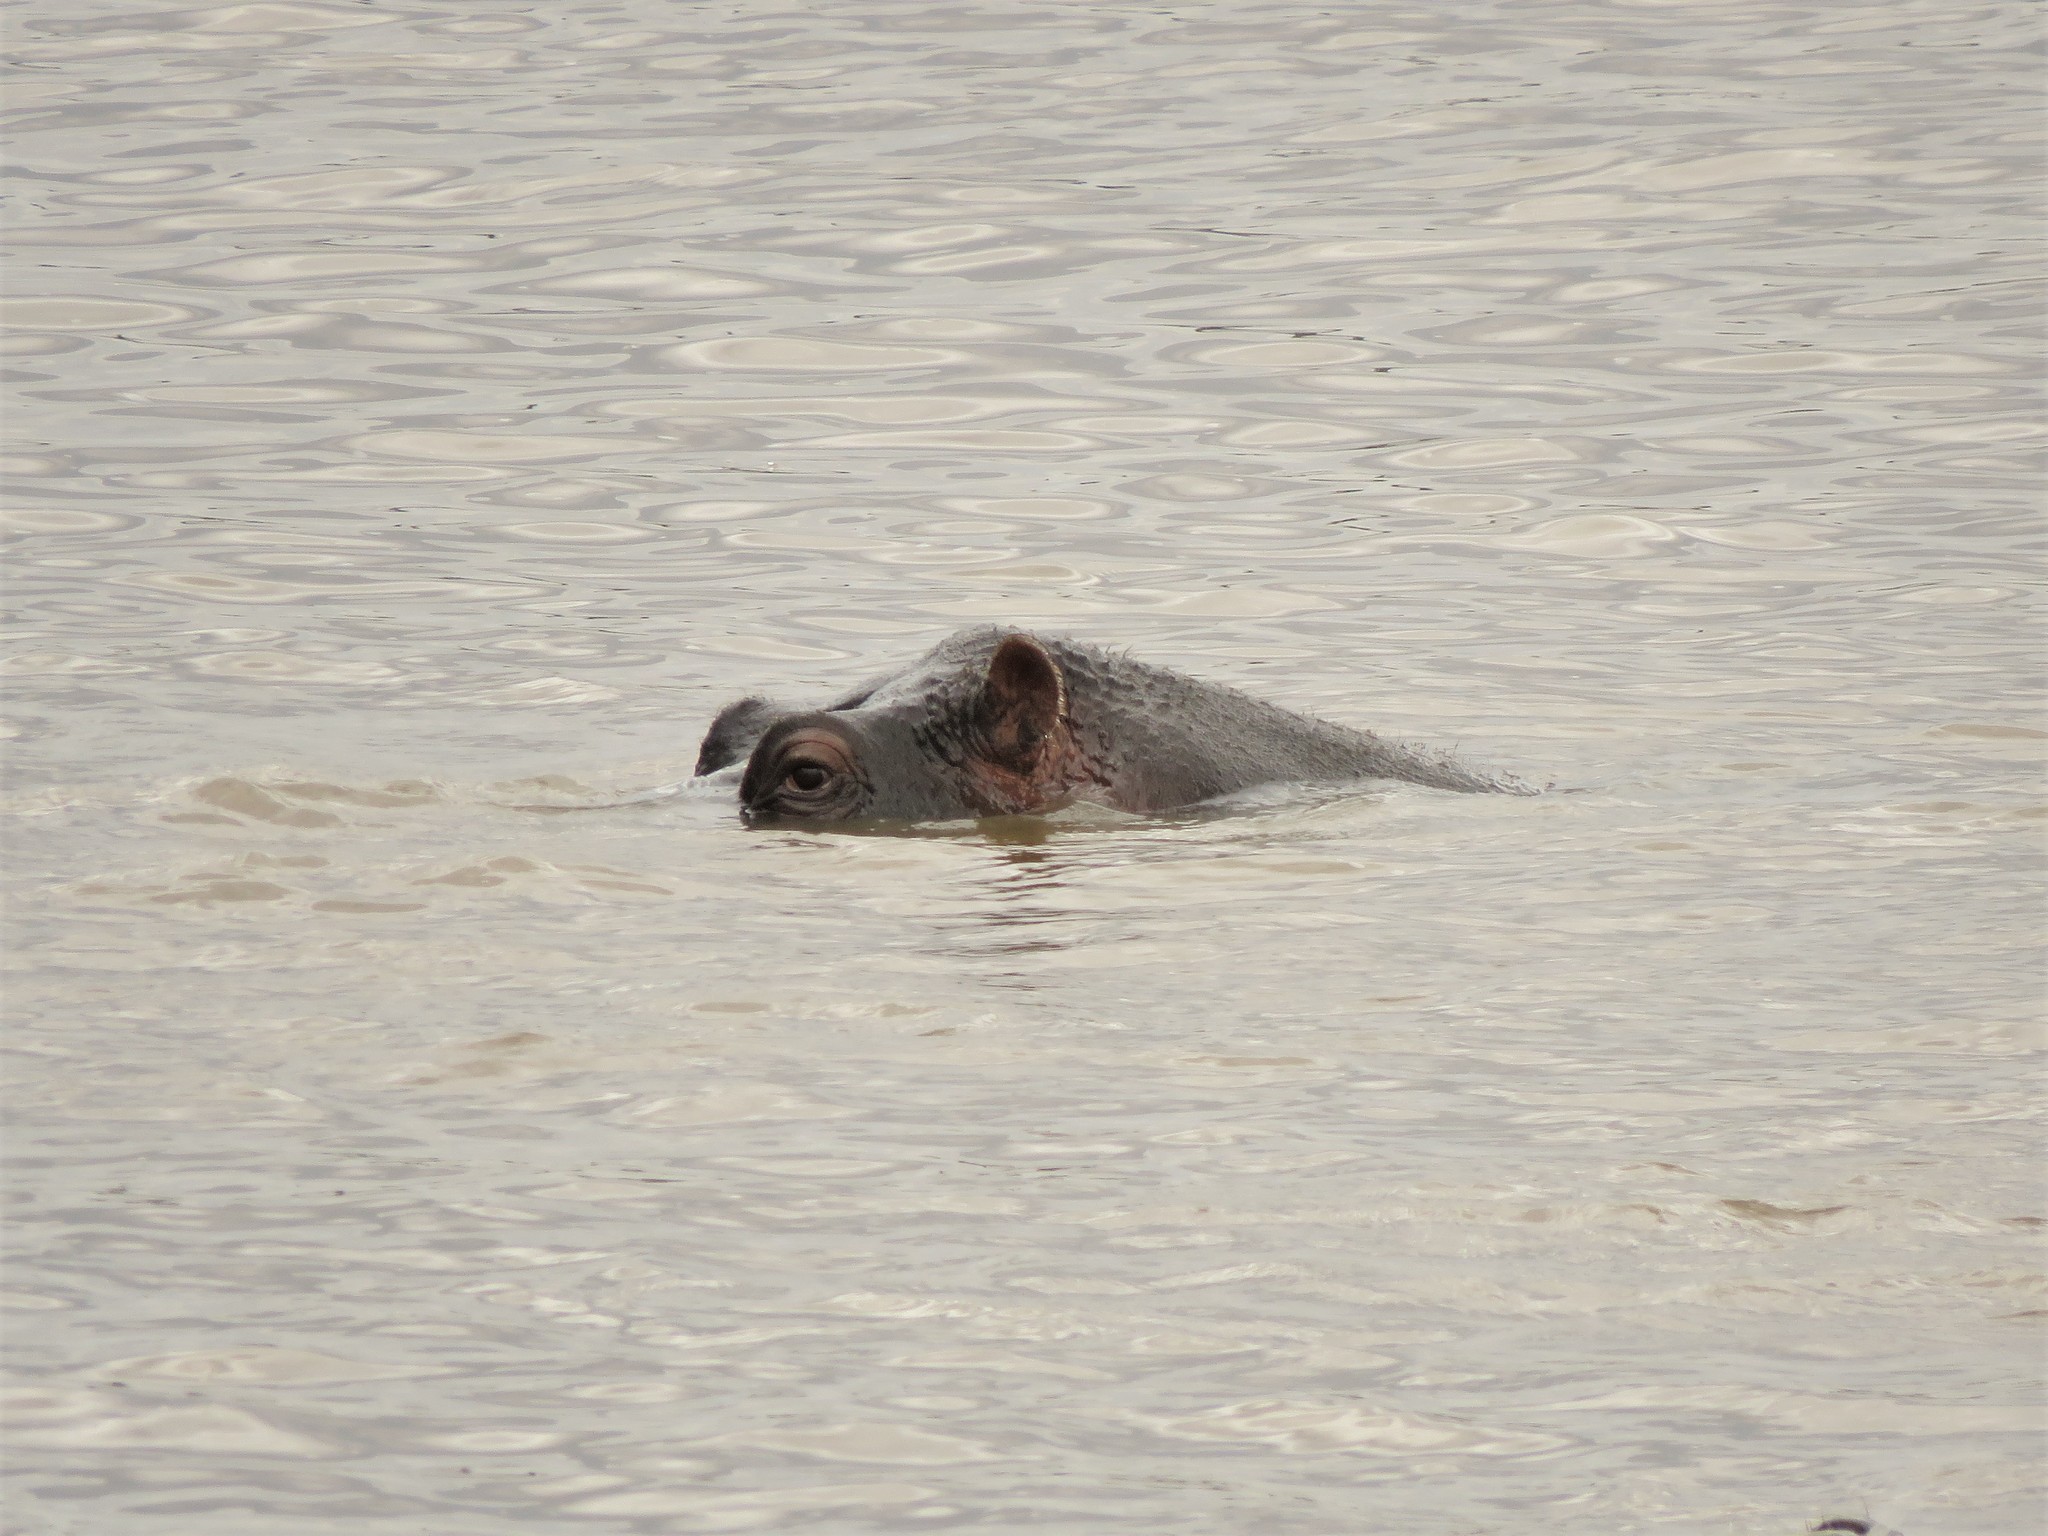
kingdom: Animalia
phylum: Chordata
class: Mammalia
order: Artiodactyla
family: Hippopotamidae
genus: Hippopotamus
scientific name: Hippopotamus amphibius
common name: Common hippopotamus
